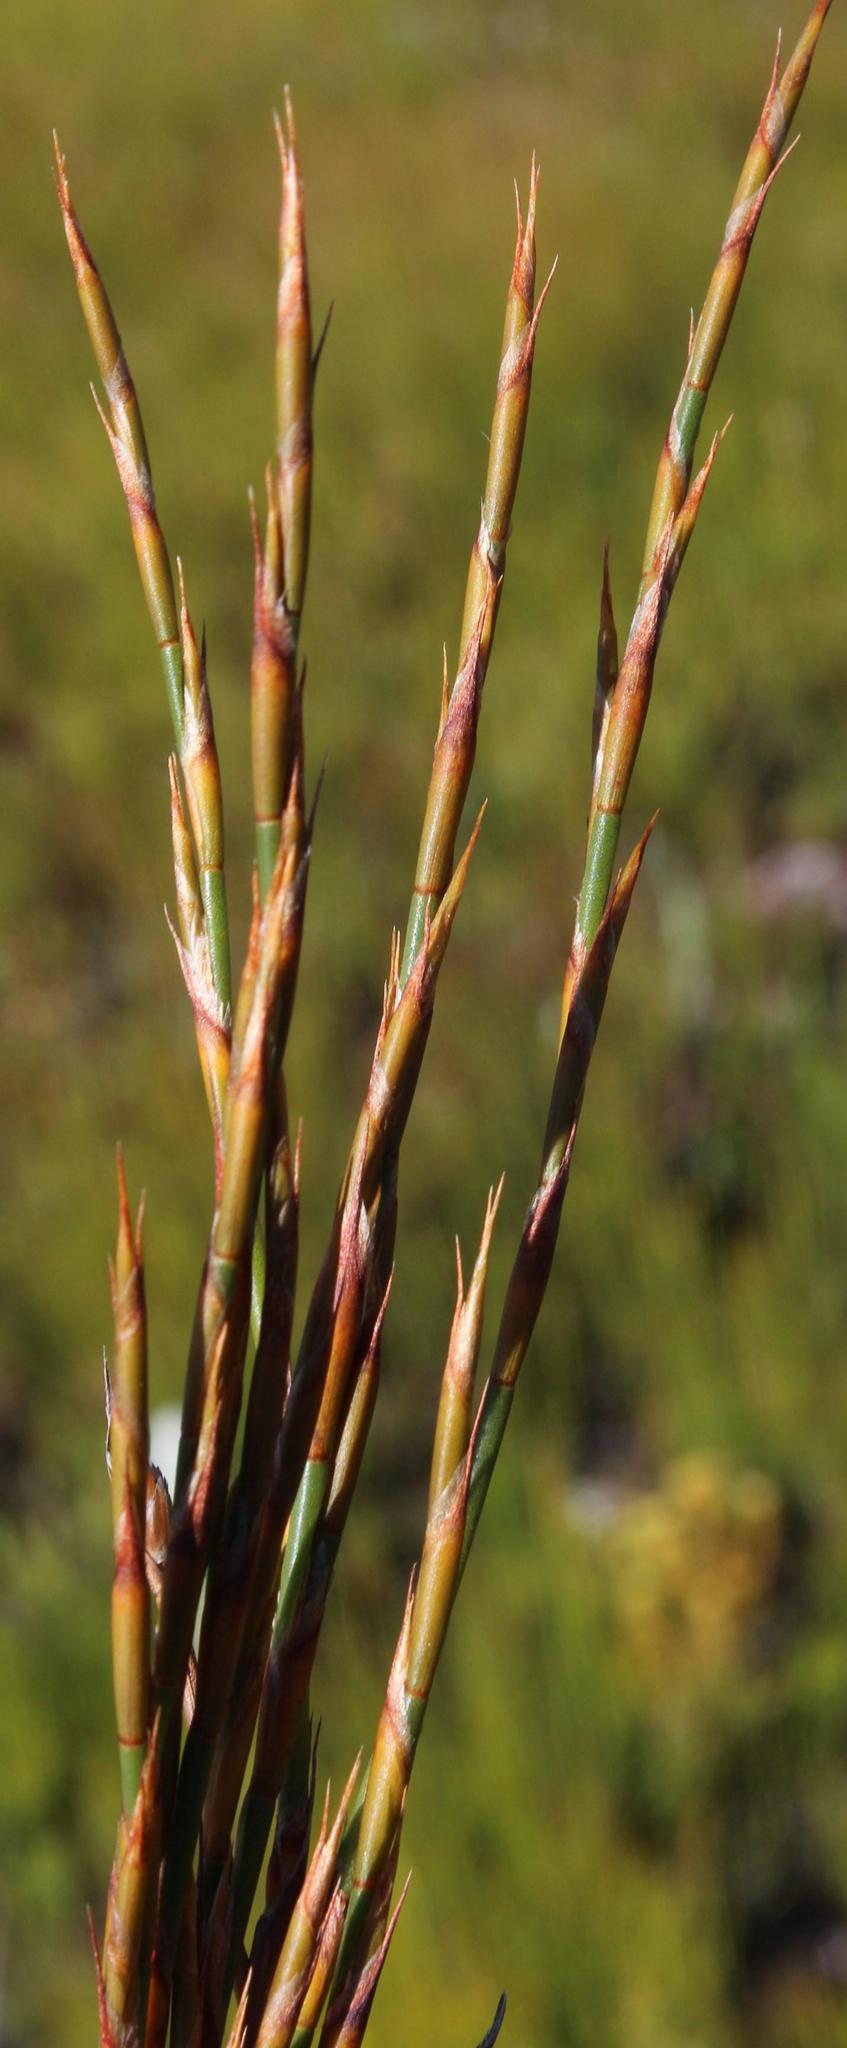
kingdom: Plantae
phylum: Tracheophyta
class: Liliopsida
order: Poales
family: Restionaceae
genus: Restio
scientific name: Restio dispar
